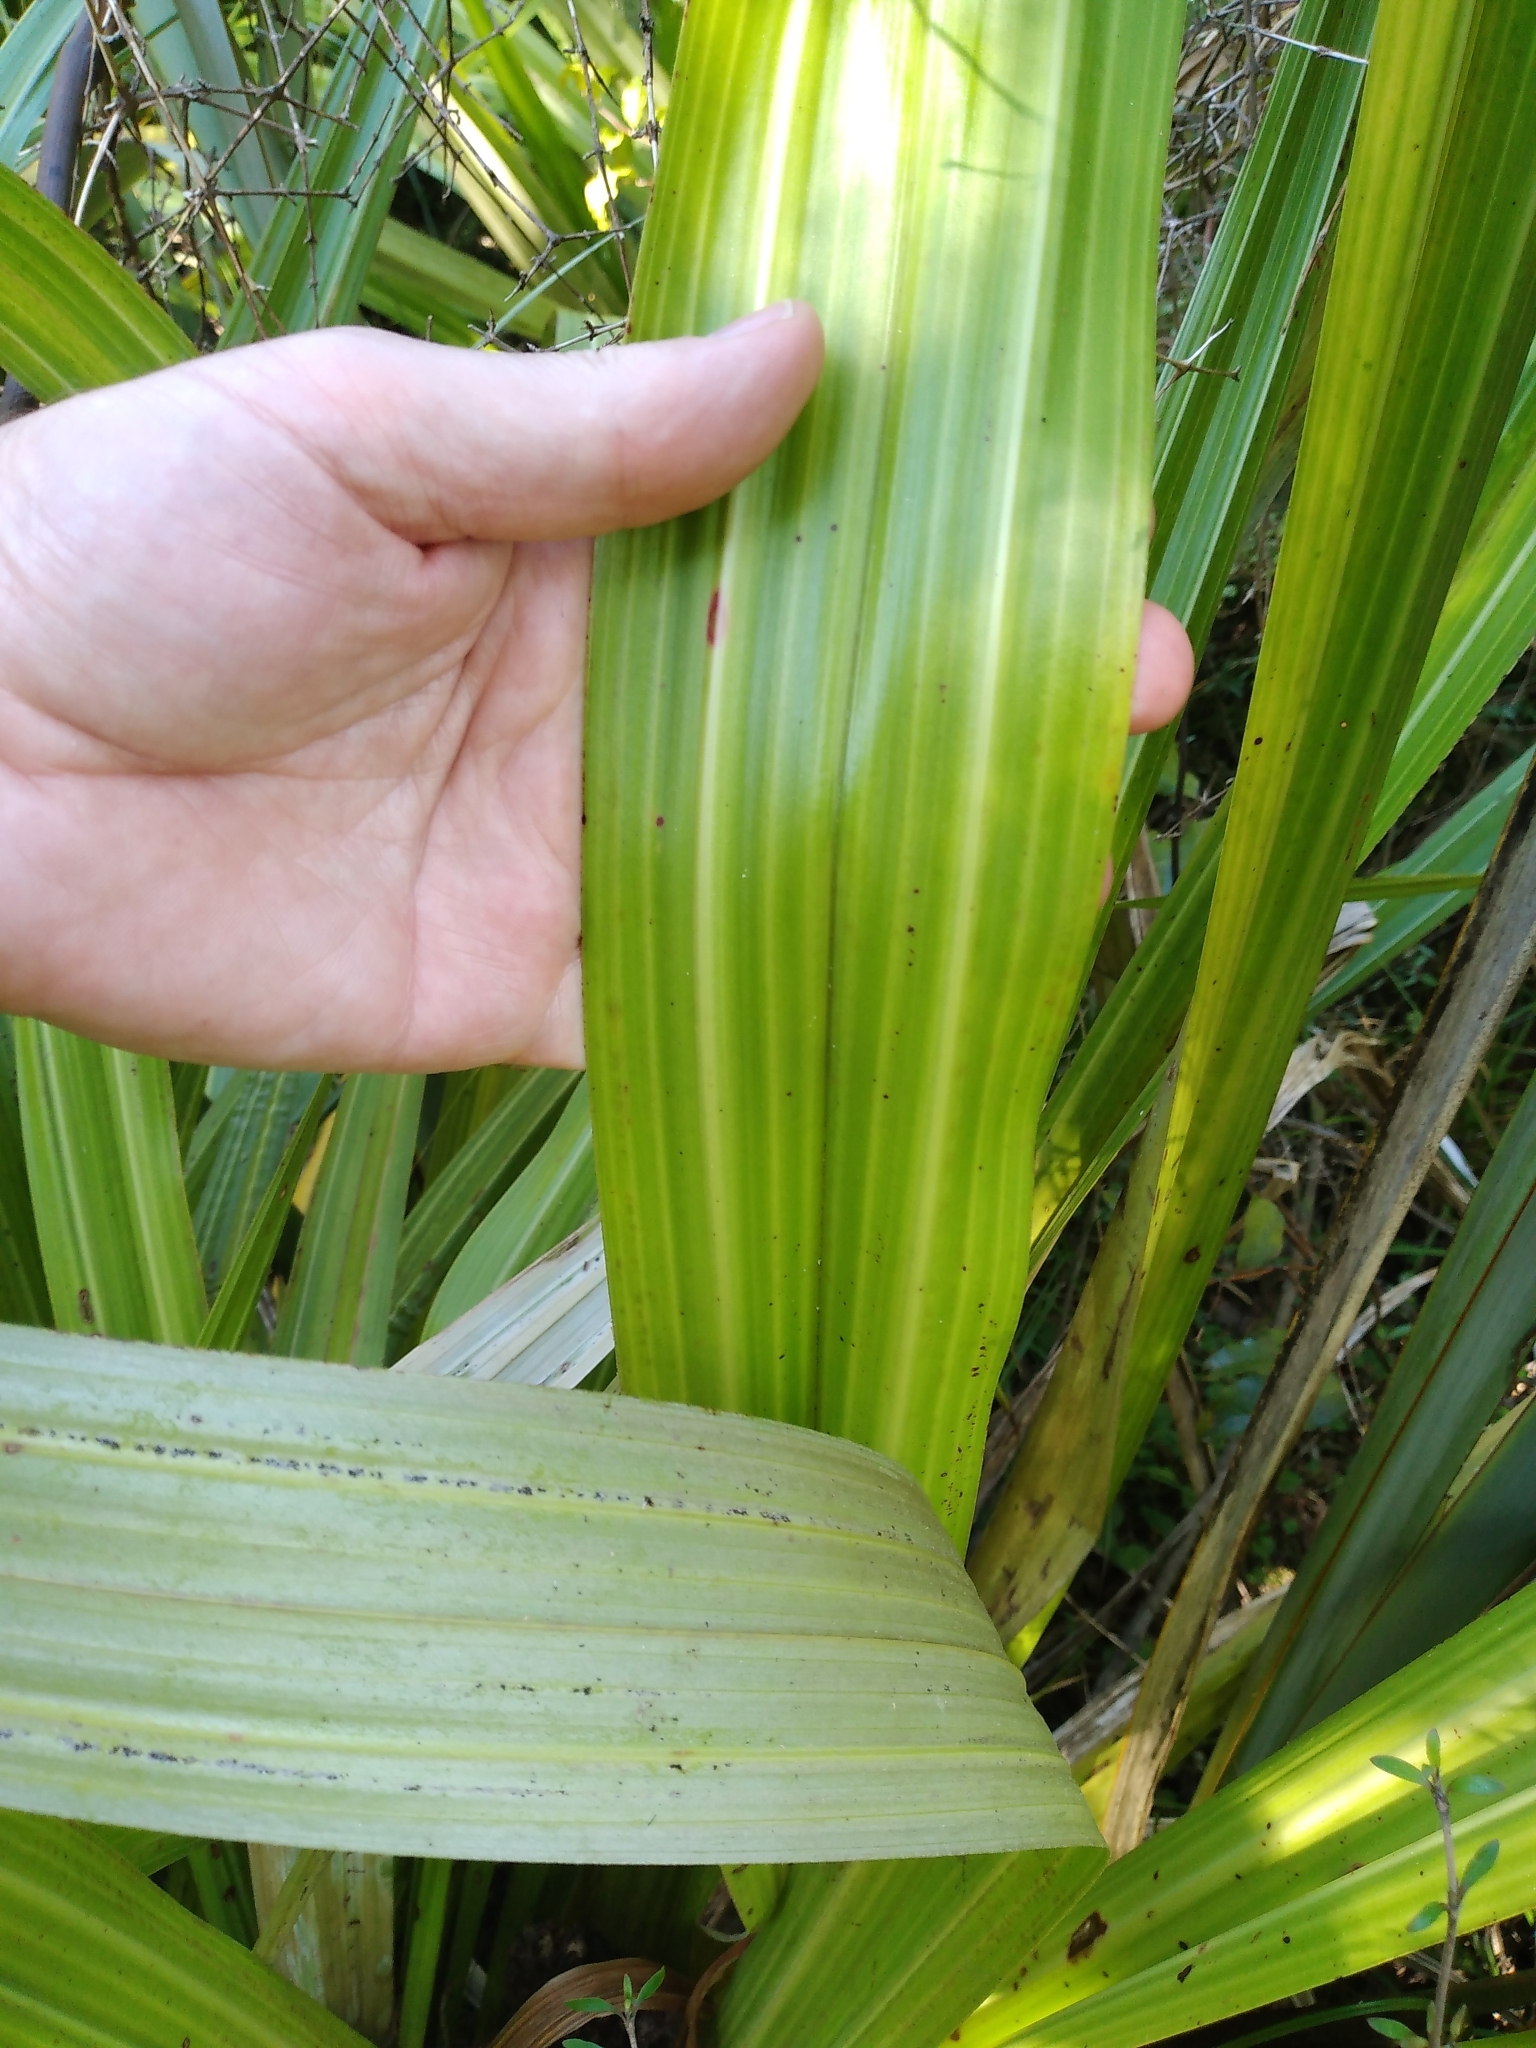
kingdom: Plantae
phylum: Tracheophyta
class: Liliopsida
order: Asparagales
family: Asteliaceae
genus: Astelia
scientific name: Astelia grandis
